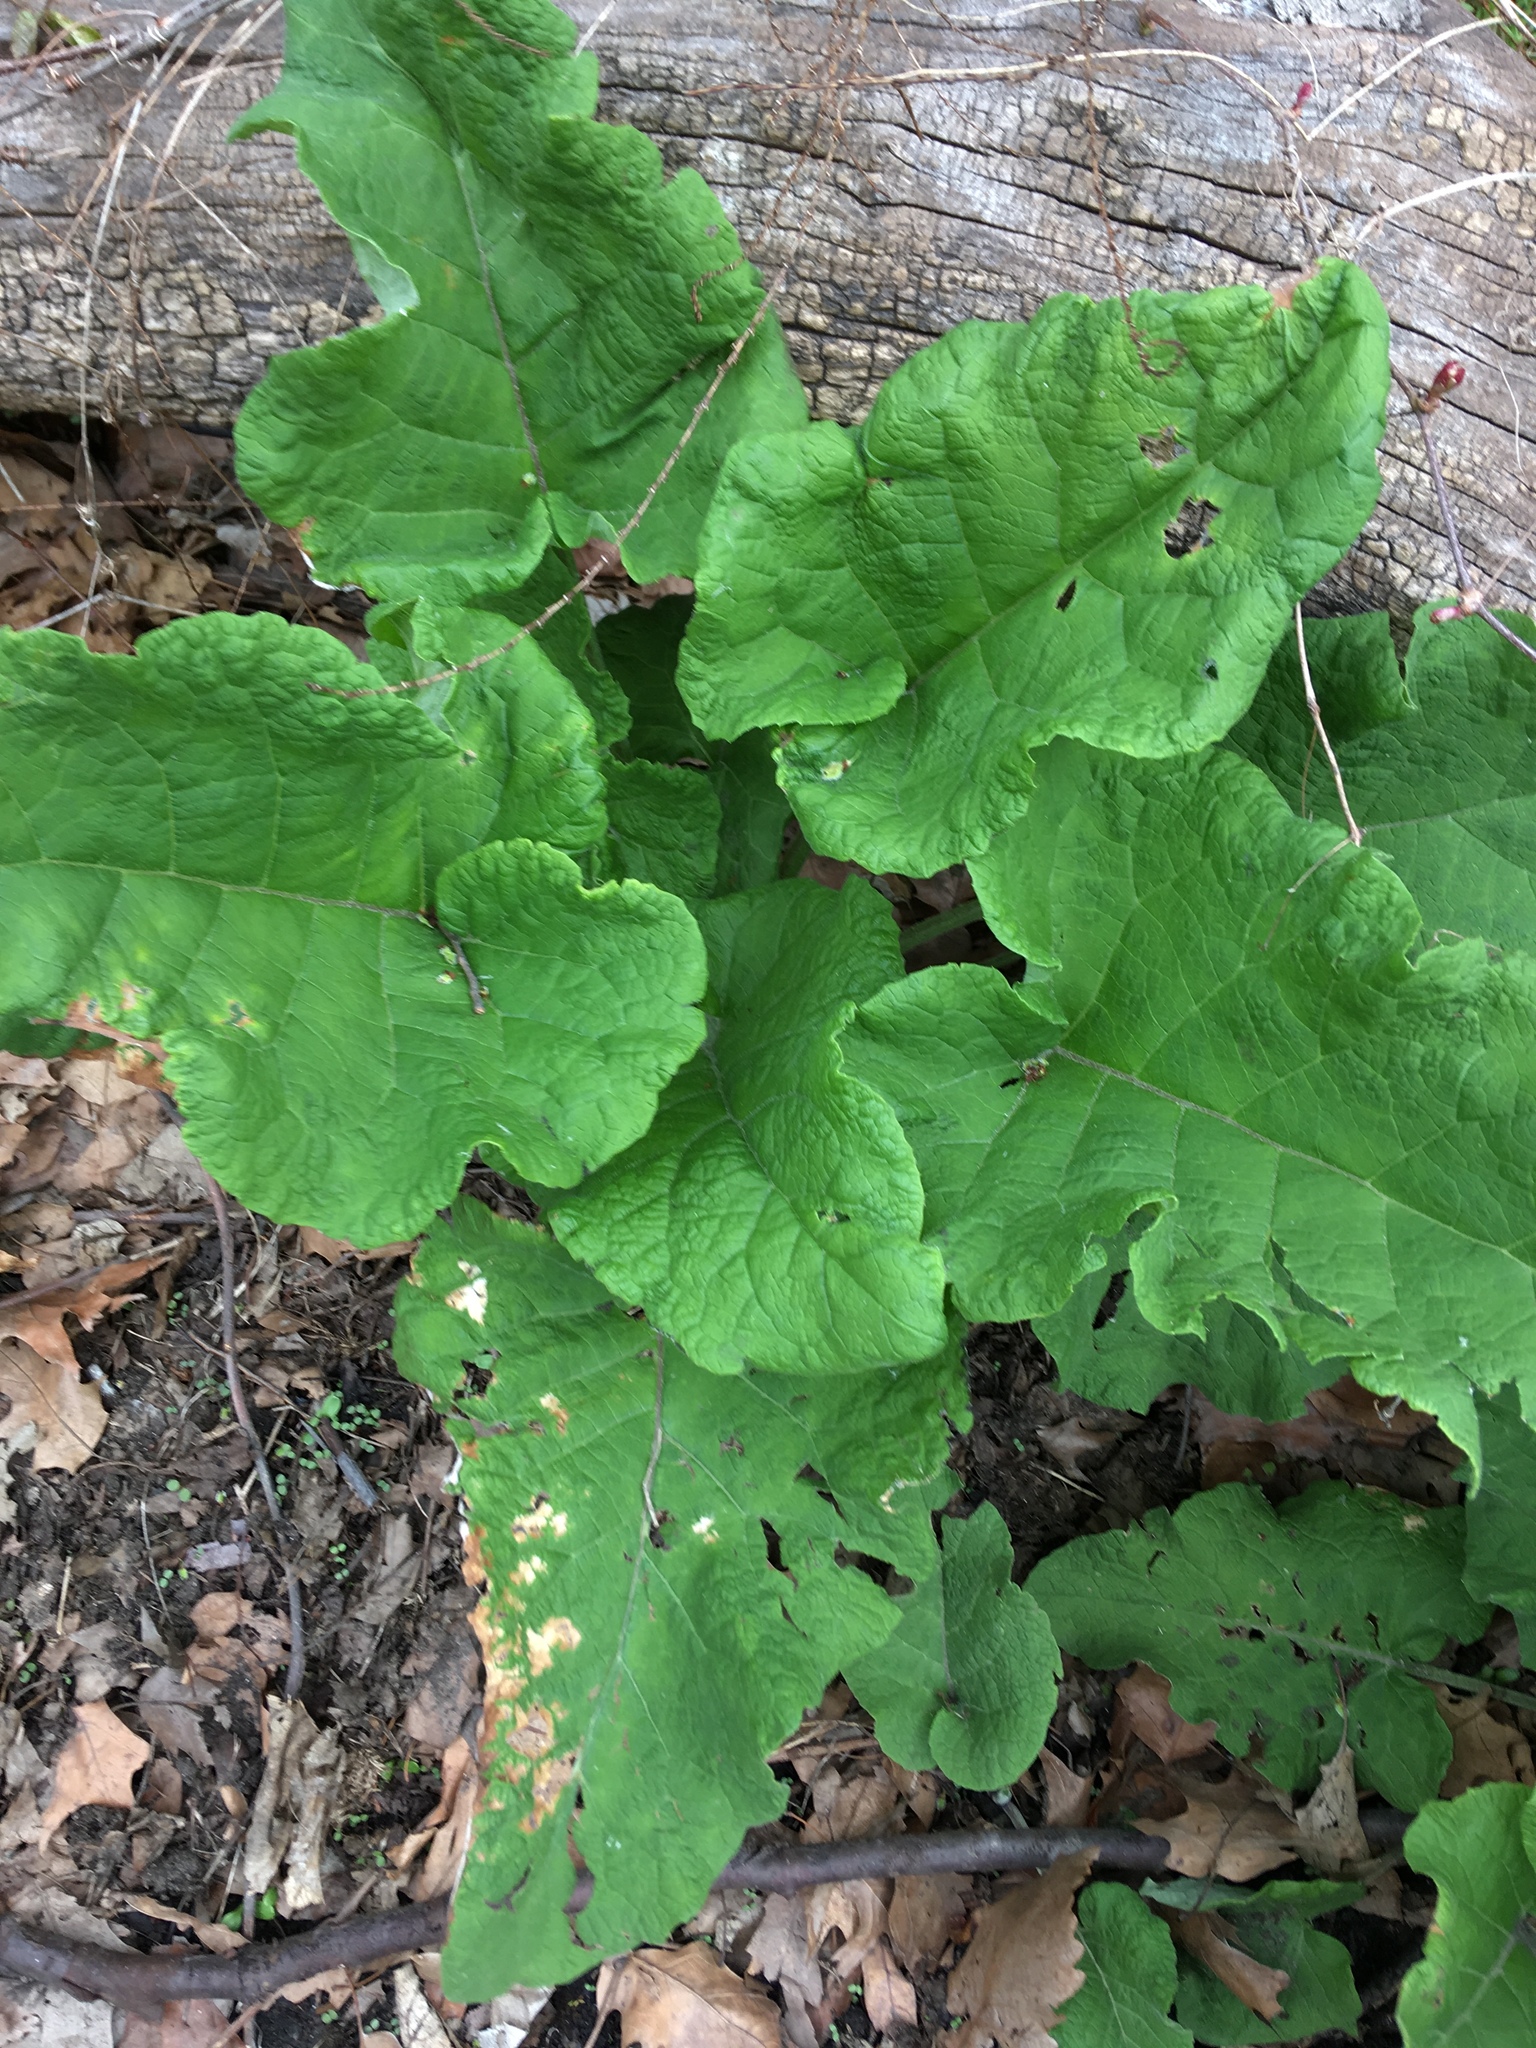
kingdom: Plantae
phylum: Tracheophyta
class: Magnoliopsida
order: Asterales
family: Asteraceae
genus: Arctium
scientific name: Arctium
